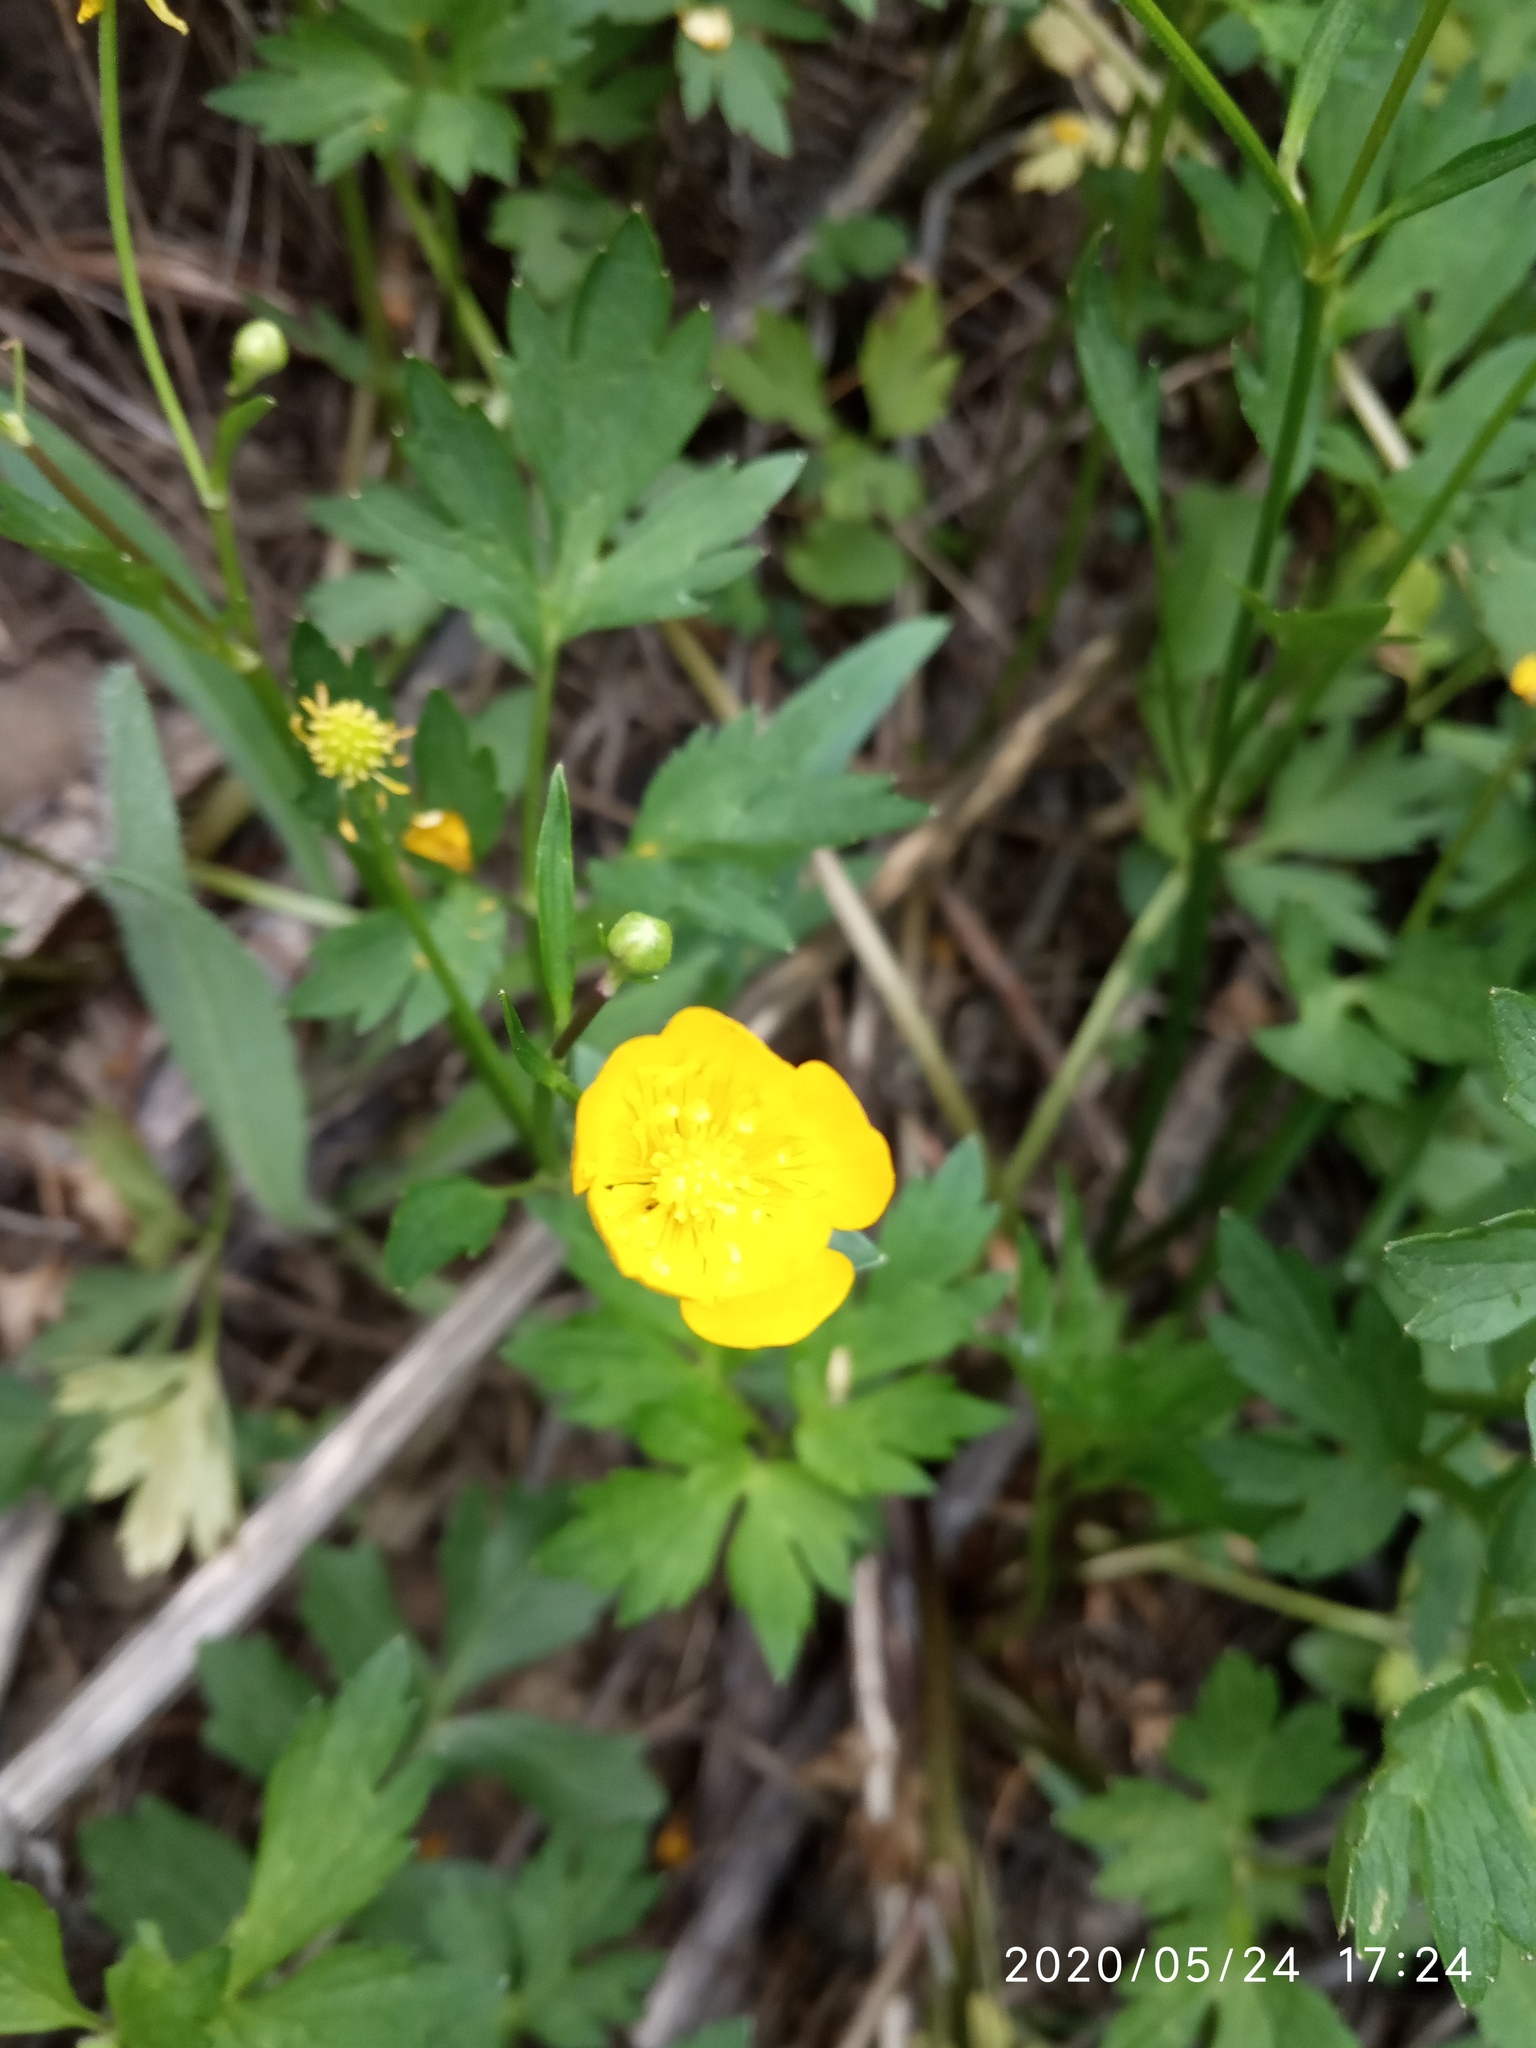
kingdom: Plantae
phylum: Tracheophyta
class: Magnoliopsida
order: Ranunculales
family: Ranunculaceae
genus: Ranunculus
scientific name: Ranunculus repens
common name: Creeping buttercup
